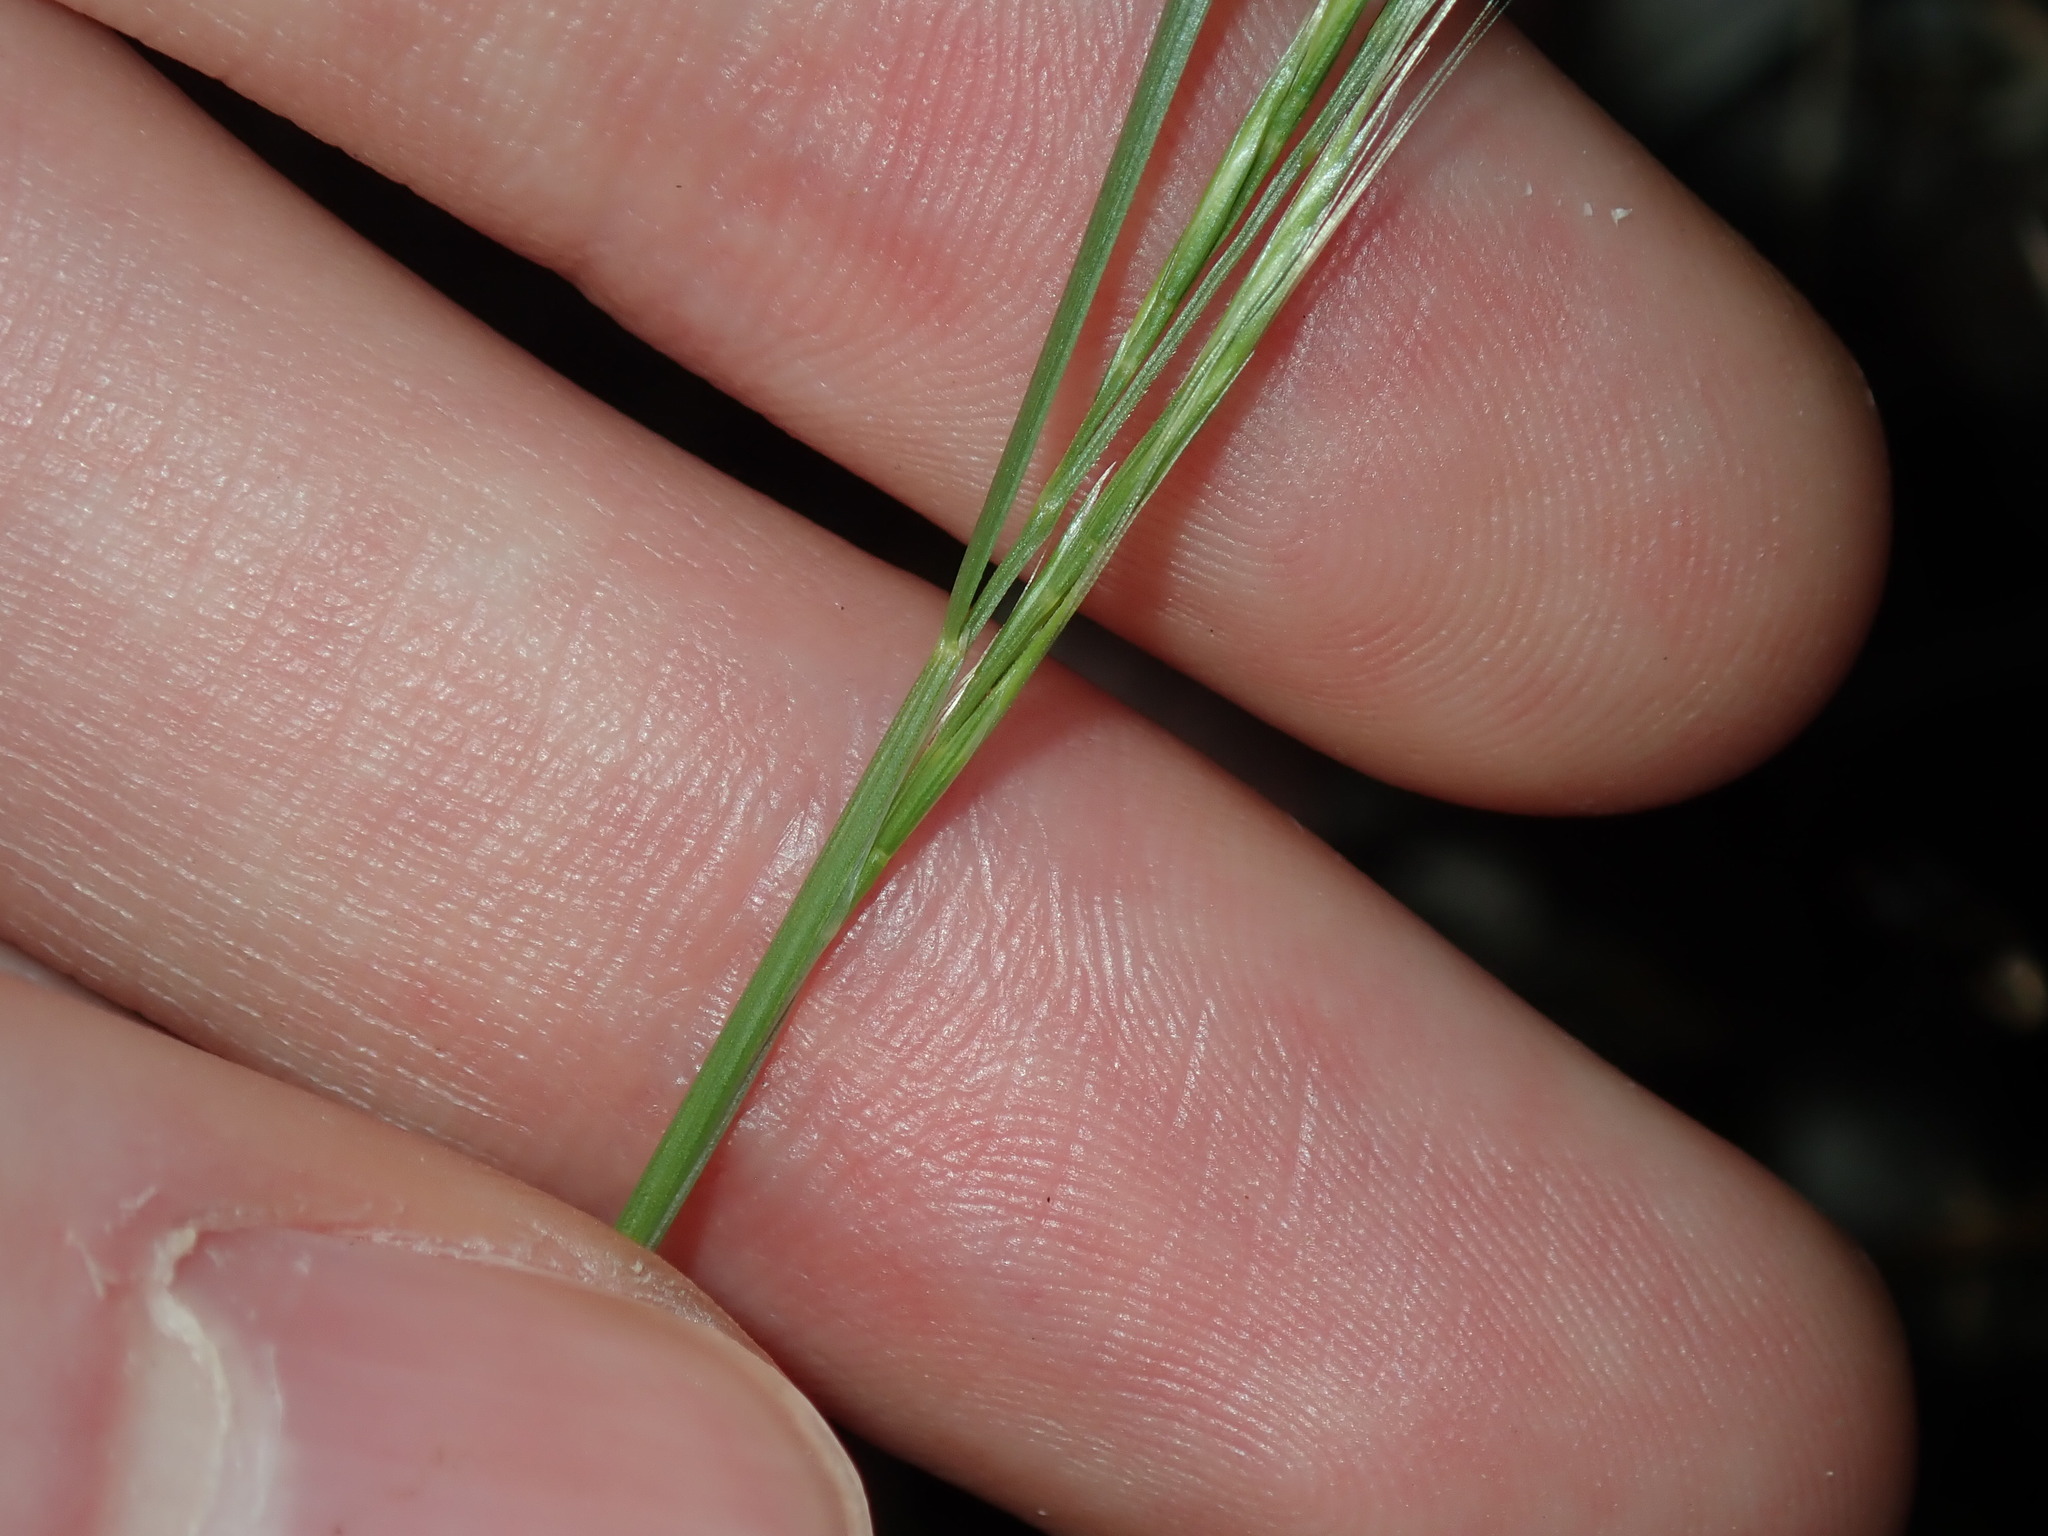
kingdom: Plantae
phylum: Tracheophyta
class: Liliopsida
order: Poales
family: Poaceae
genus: Festuca
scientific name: Festuca muralis
